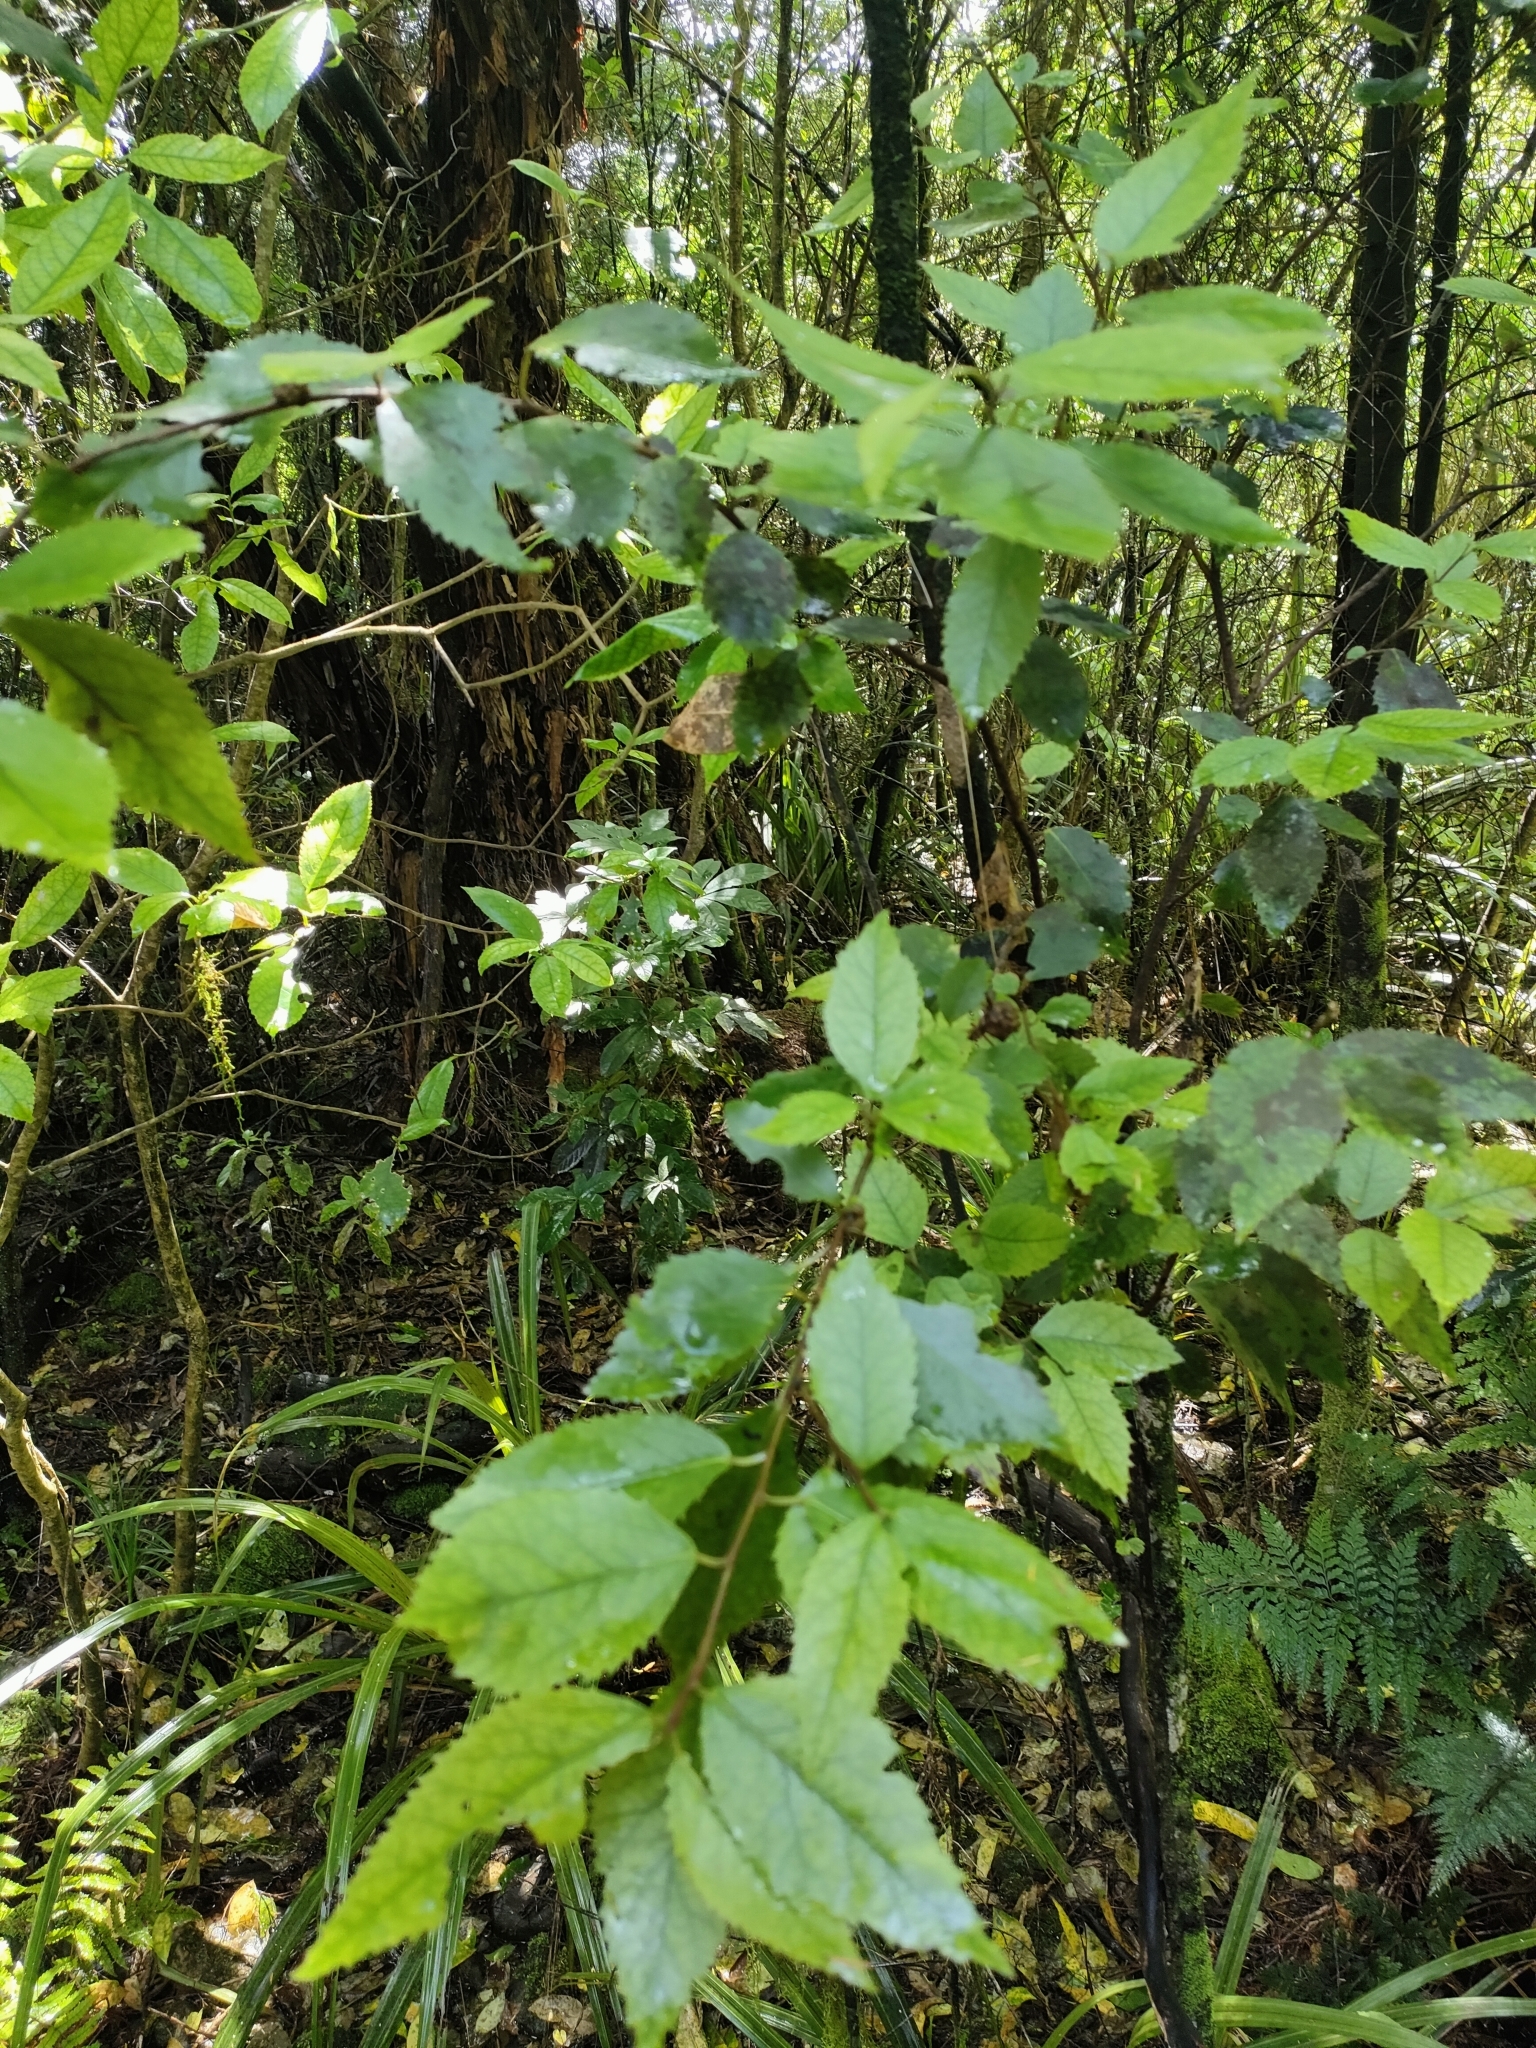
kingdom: Plantae
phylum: Tracheophyta
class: Magnoliopsida
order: Malvales
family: Malvaceae
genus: Hoheria
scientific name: Hoheria ovata
